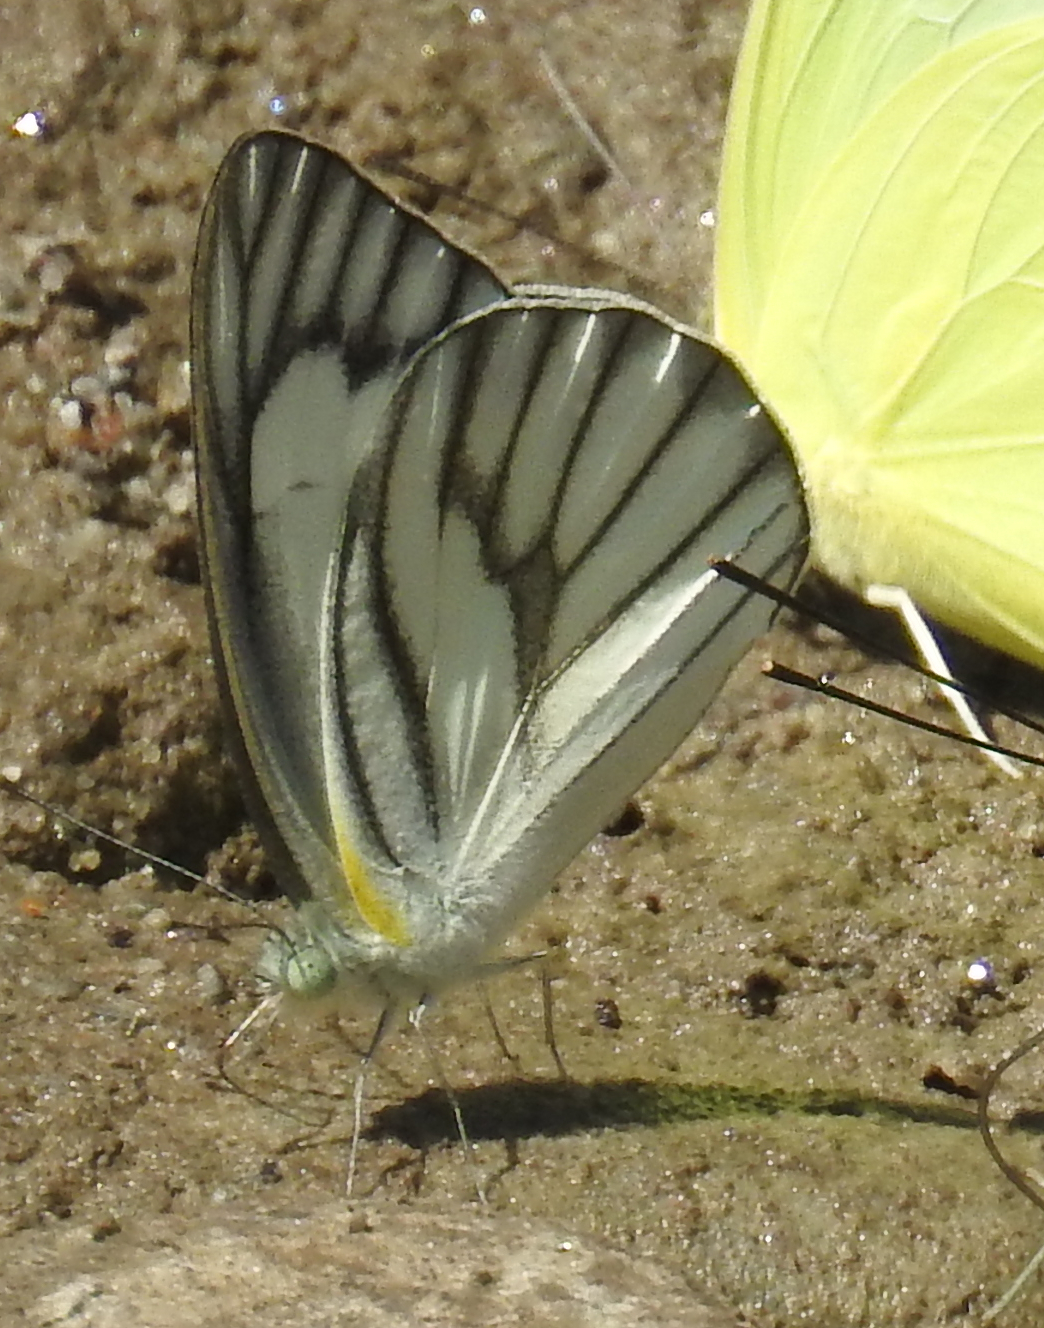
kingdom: Animalia
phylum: Arthropoda
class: Insecta
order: Lepidoptera
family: Pieridae
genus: Appias
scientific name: Appias libythea
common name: Striped albatross
